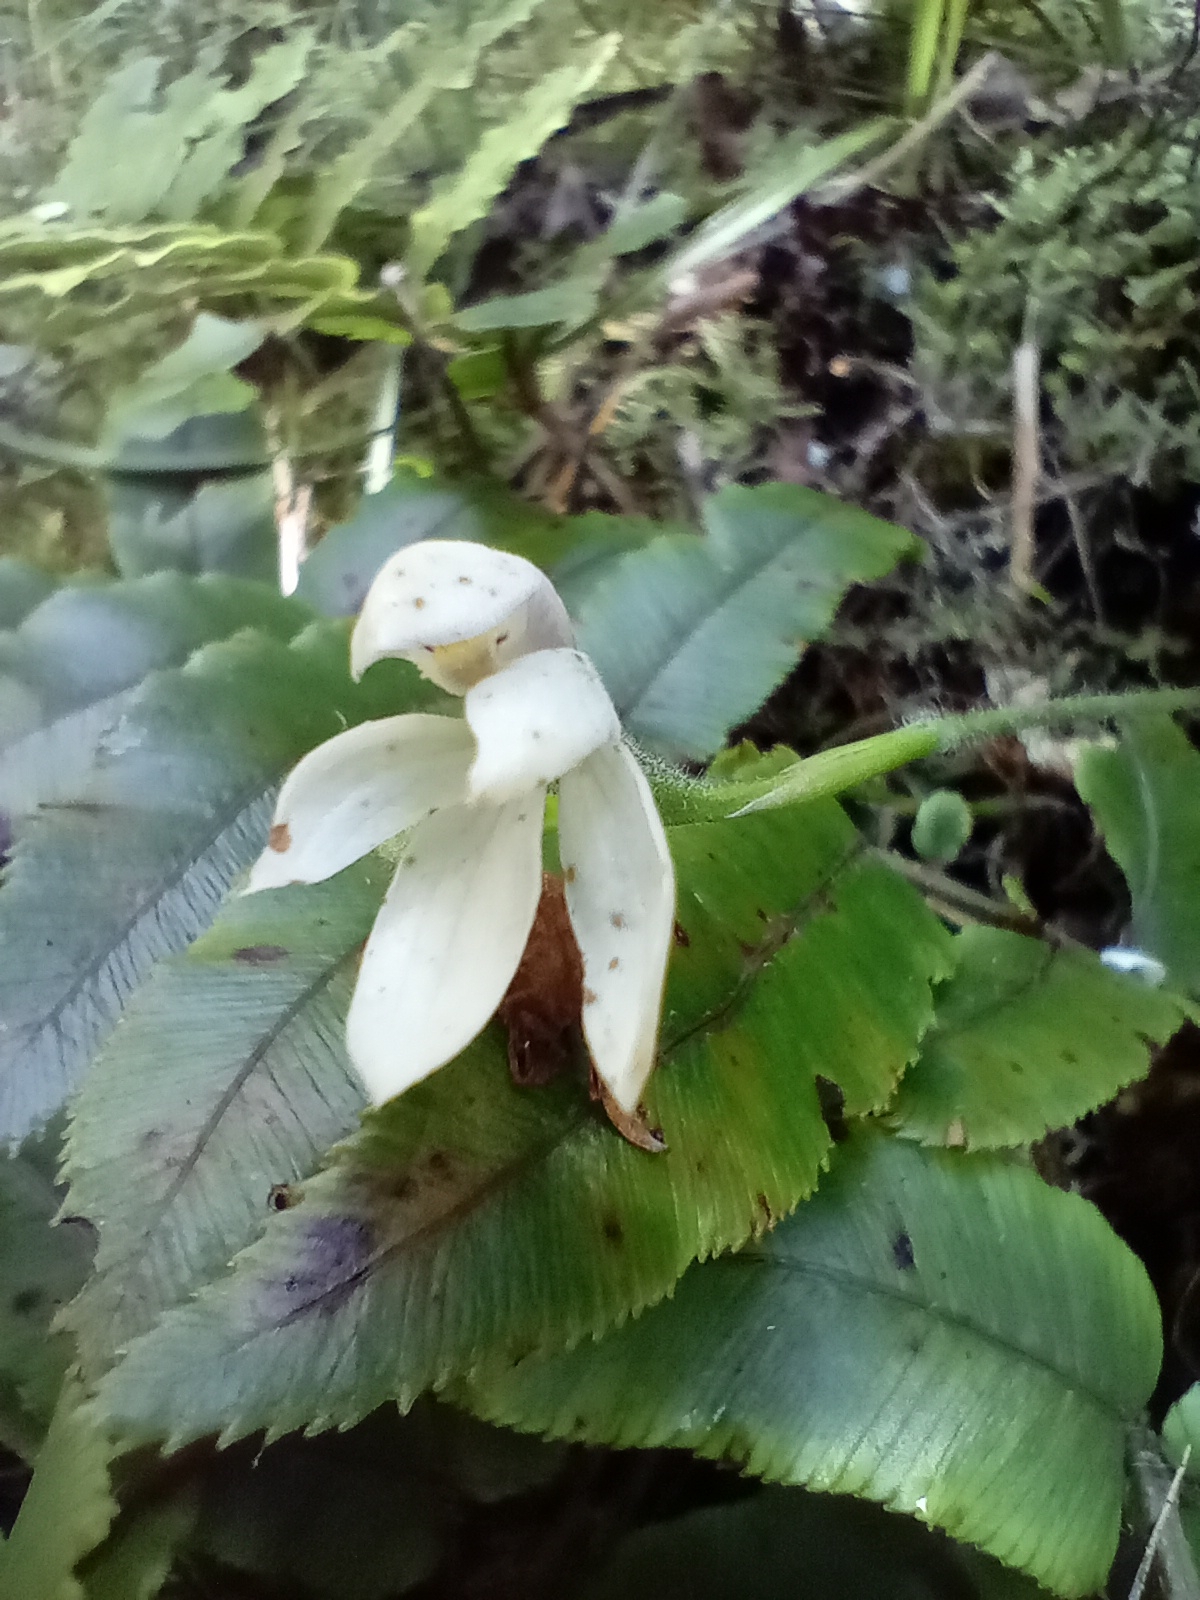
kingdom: Plantae
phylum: Tracheophyta
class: Liliopsida
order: Asparagales
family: Orchidaceae
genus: Caladenia
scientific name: Caladenia lyallii
